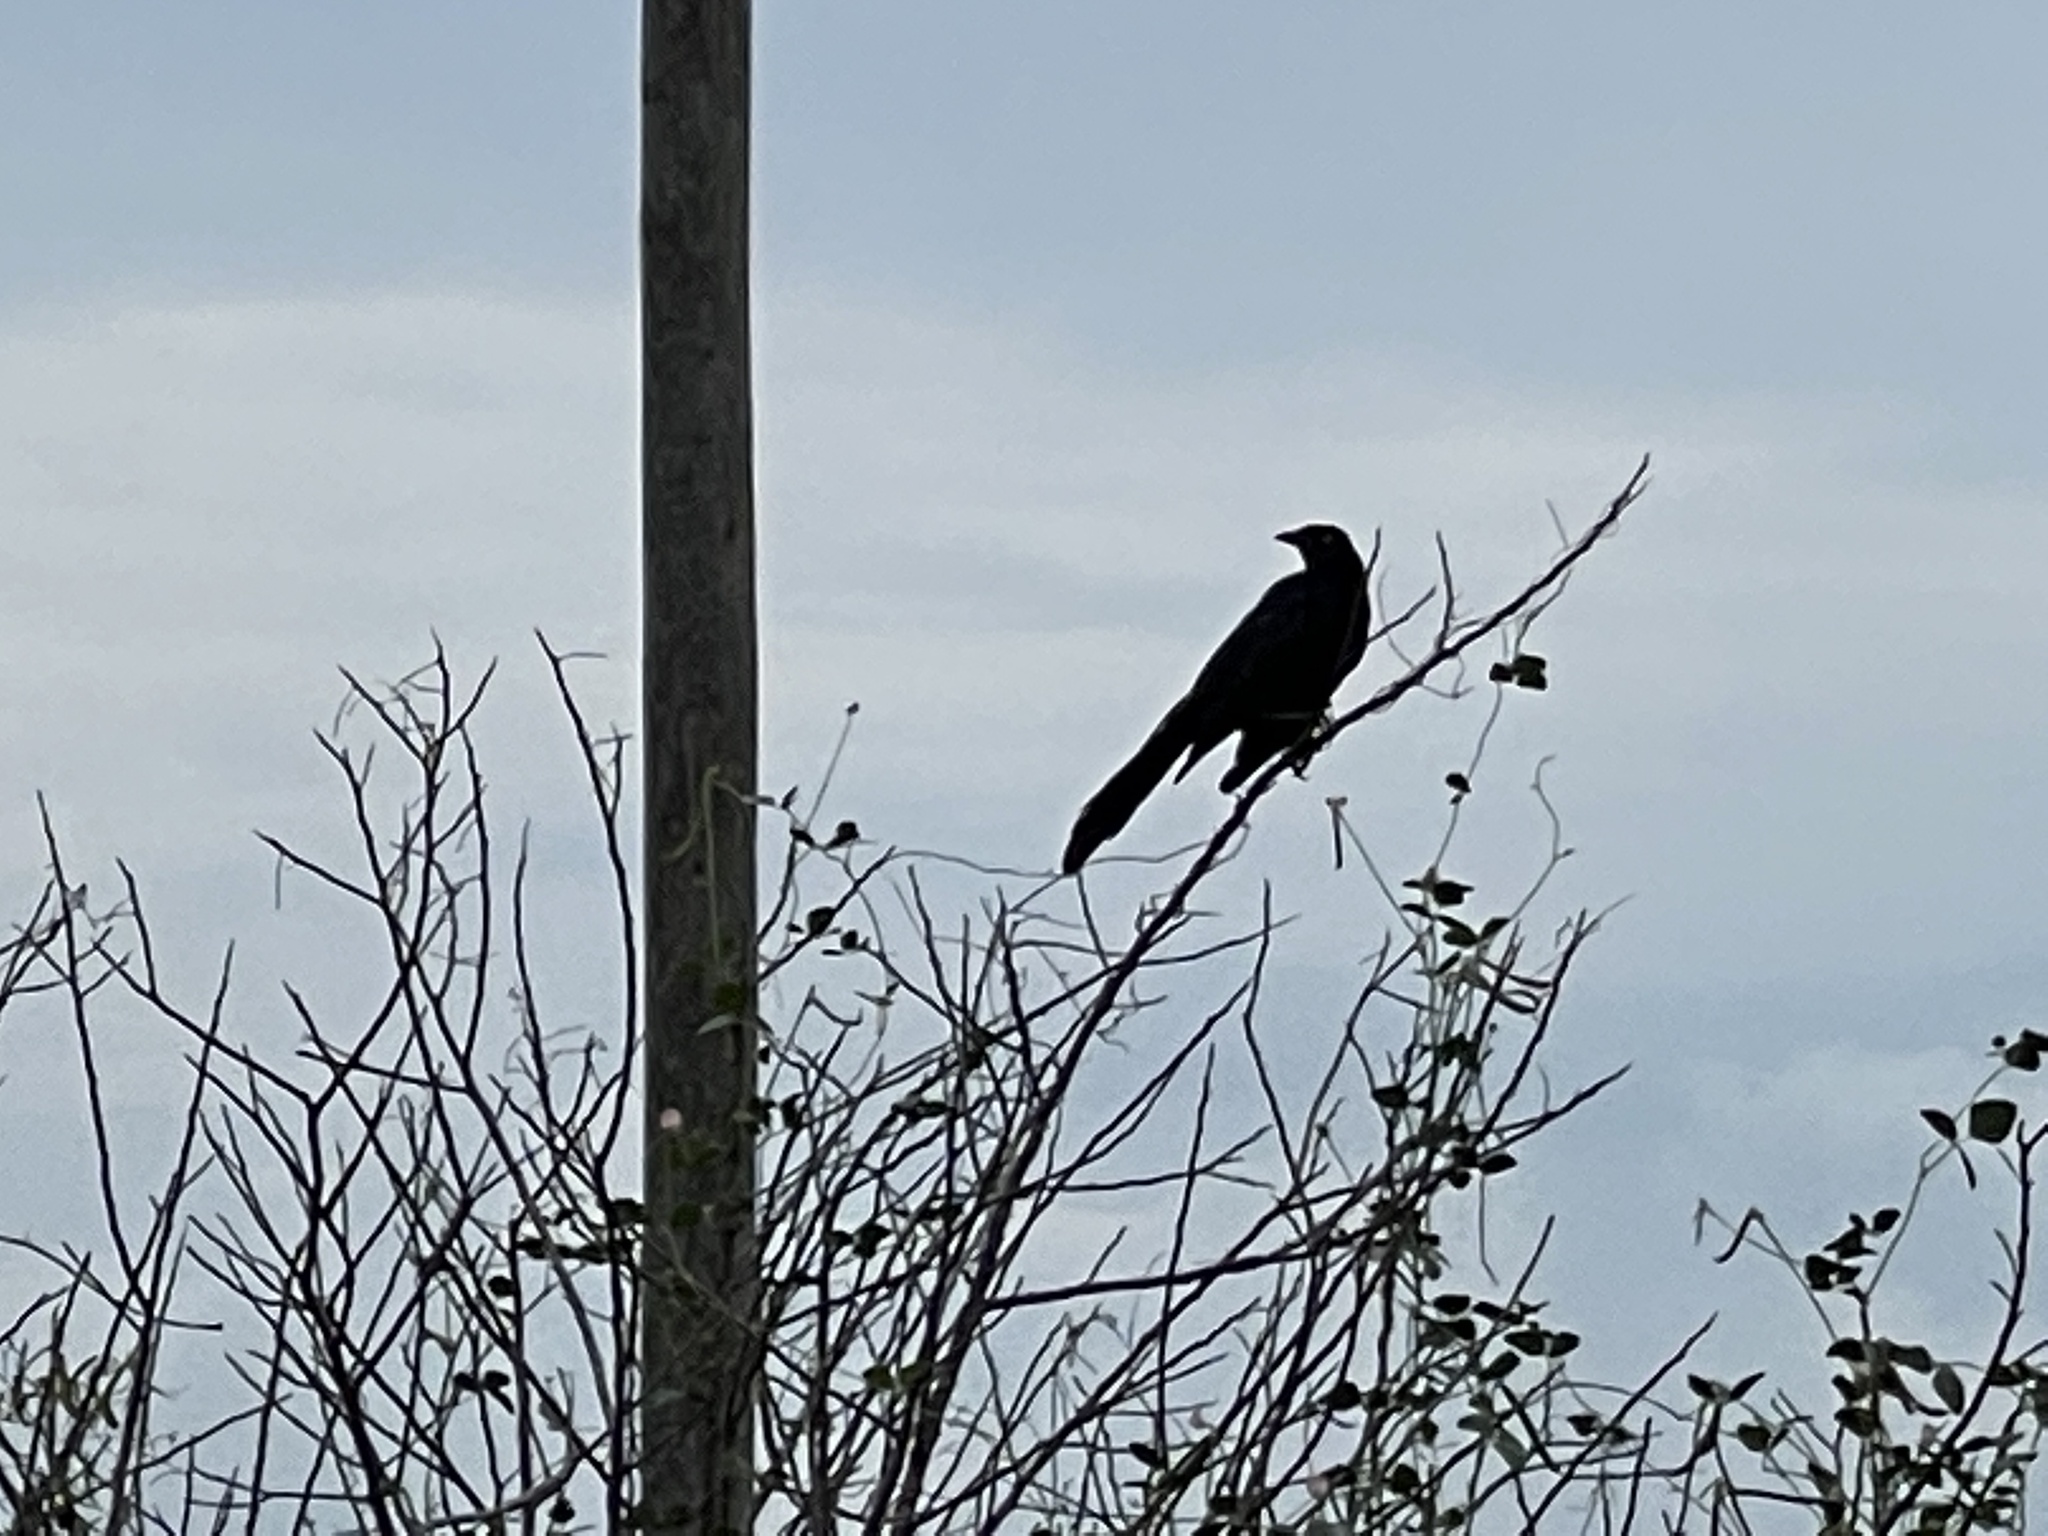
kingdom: Animalia
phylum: Chordata
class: Aves
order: Passeriformes
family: Icteridae
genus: Quiscalus
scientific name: Quiscalus mexicanus
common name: Great-tailed grackle
